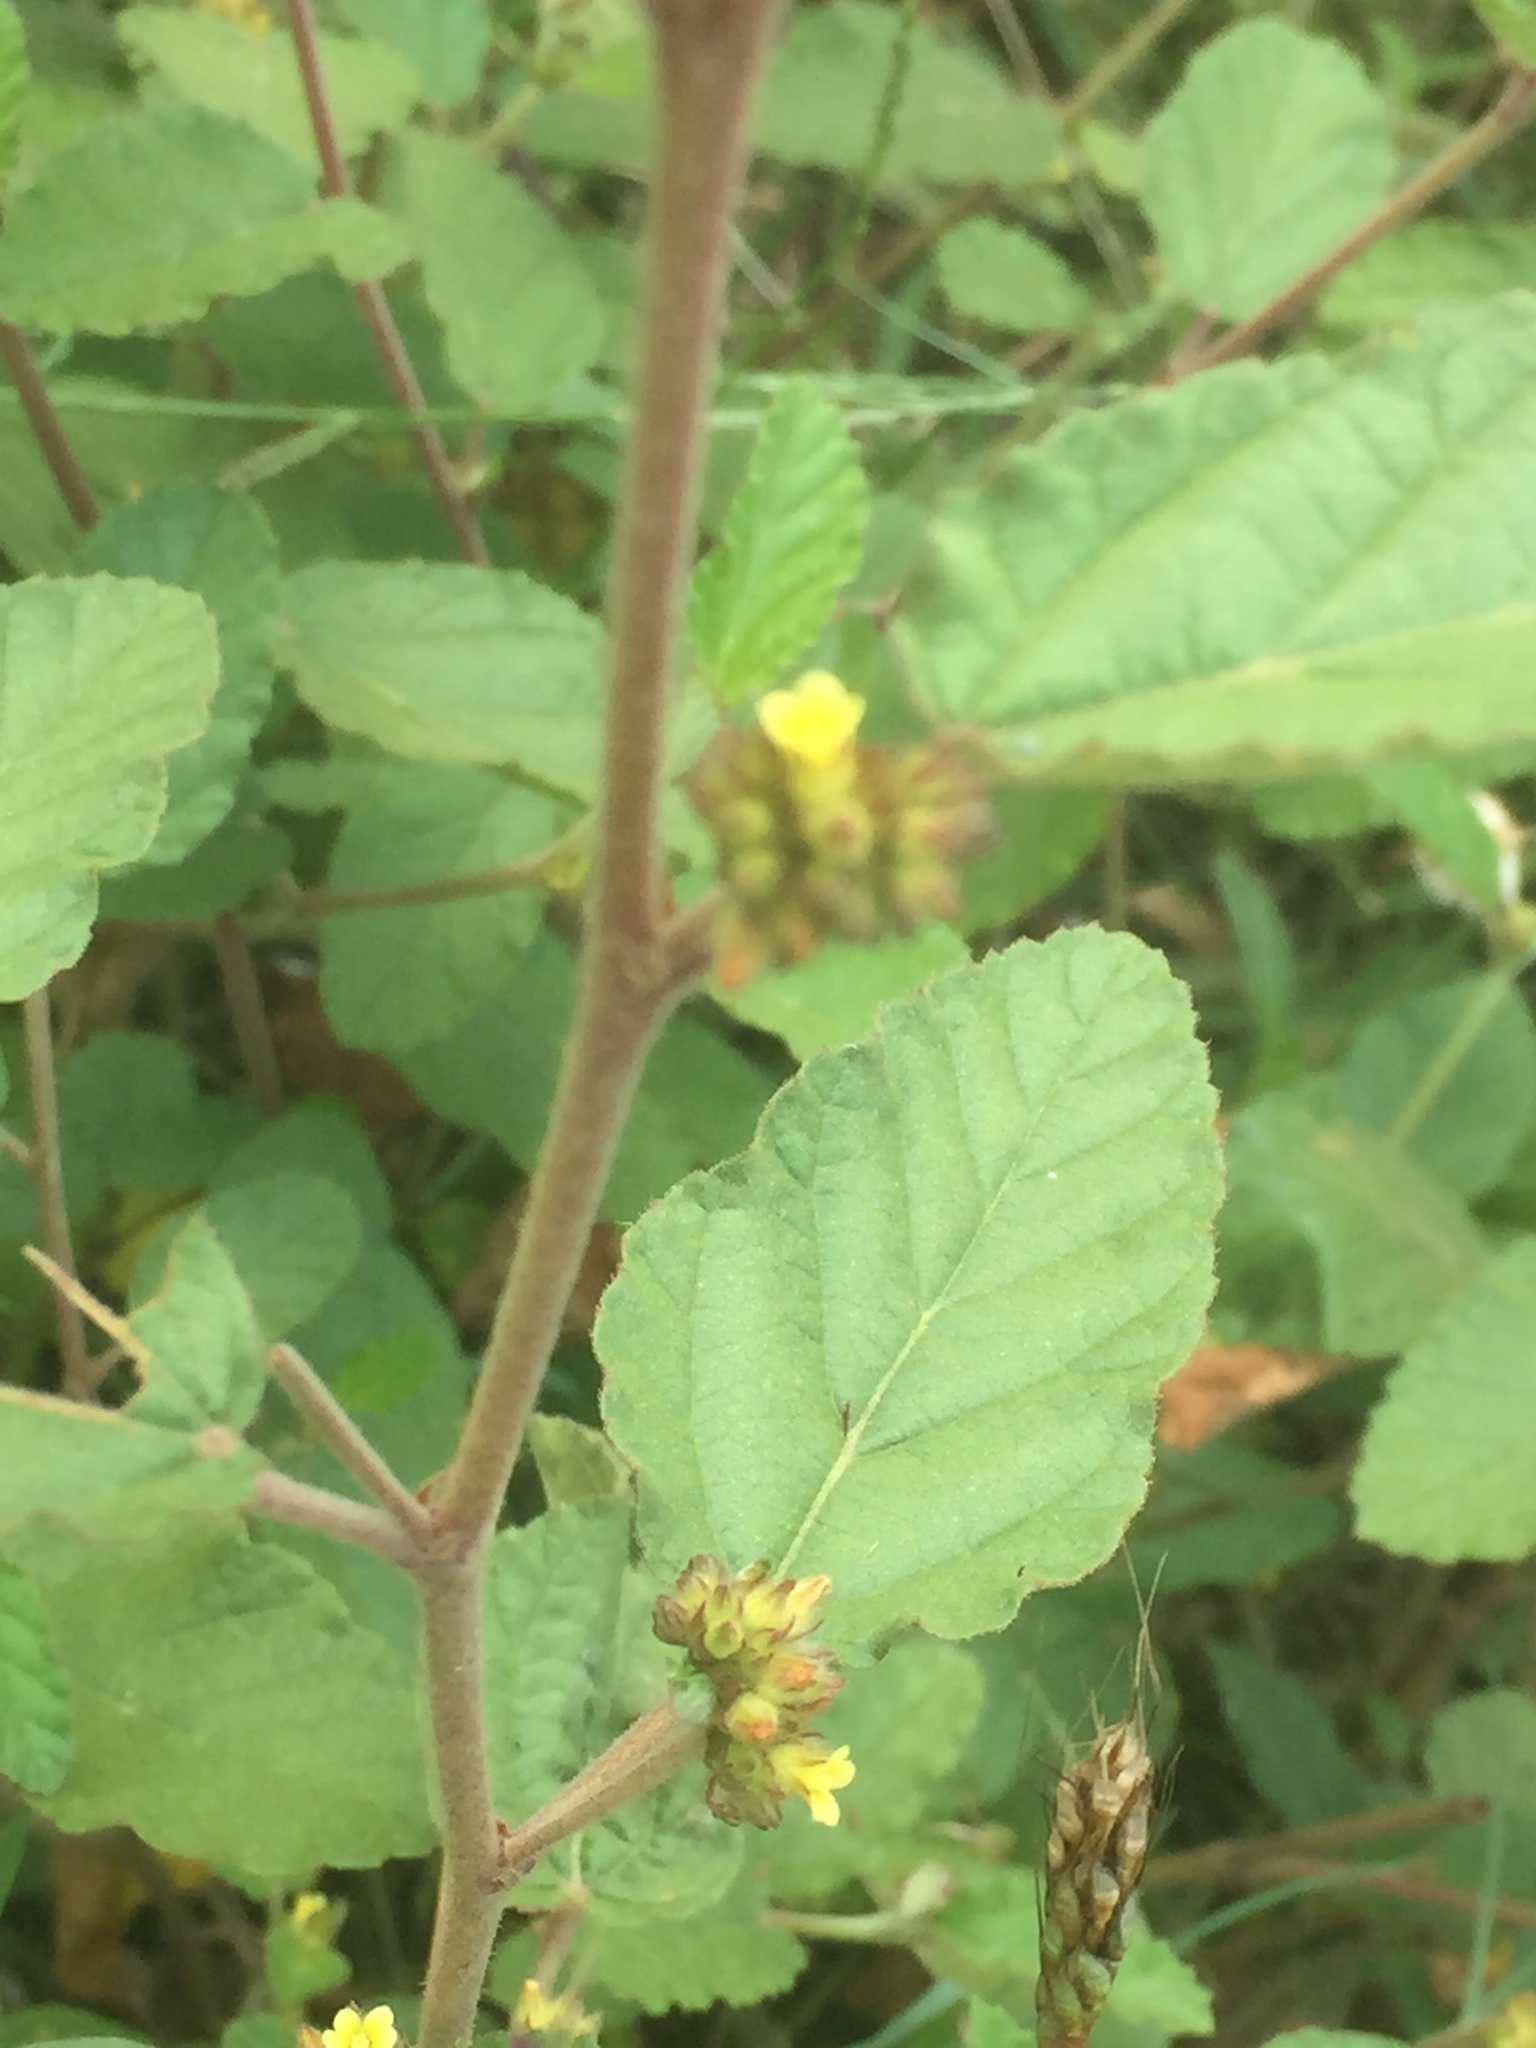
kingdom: Plantae
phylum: Tracheophyta
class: Magnoliopsida
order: Malvales
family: Malvaceae
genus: Waltheria
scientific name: Waltheria indica
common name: Leather-coat
